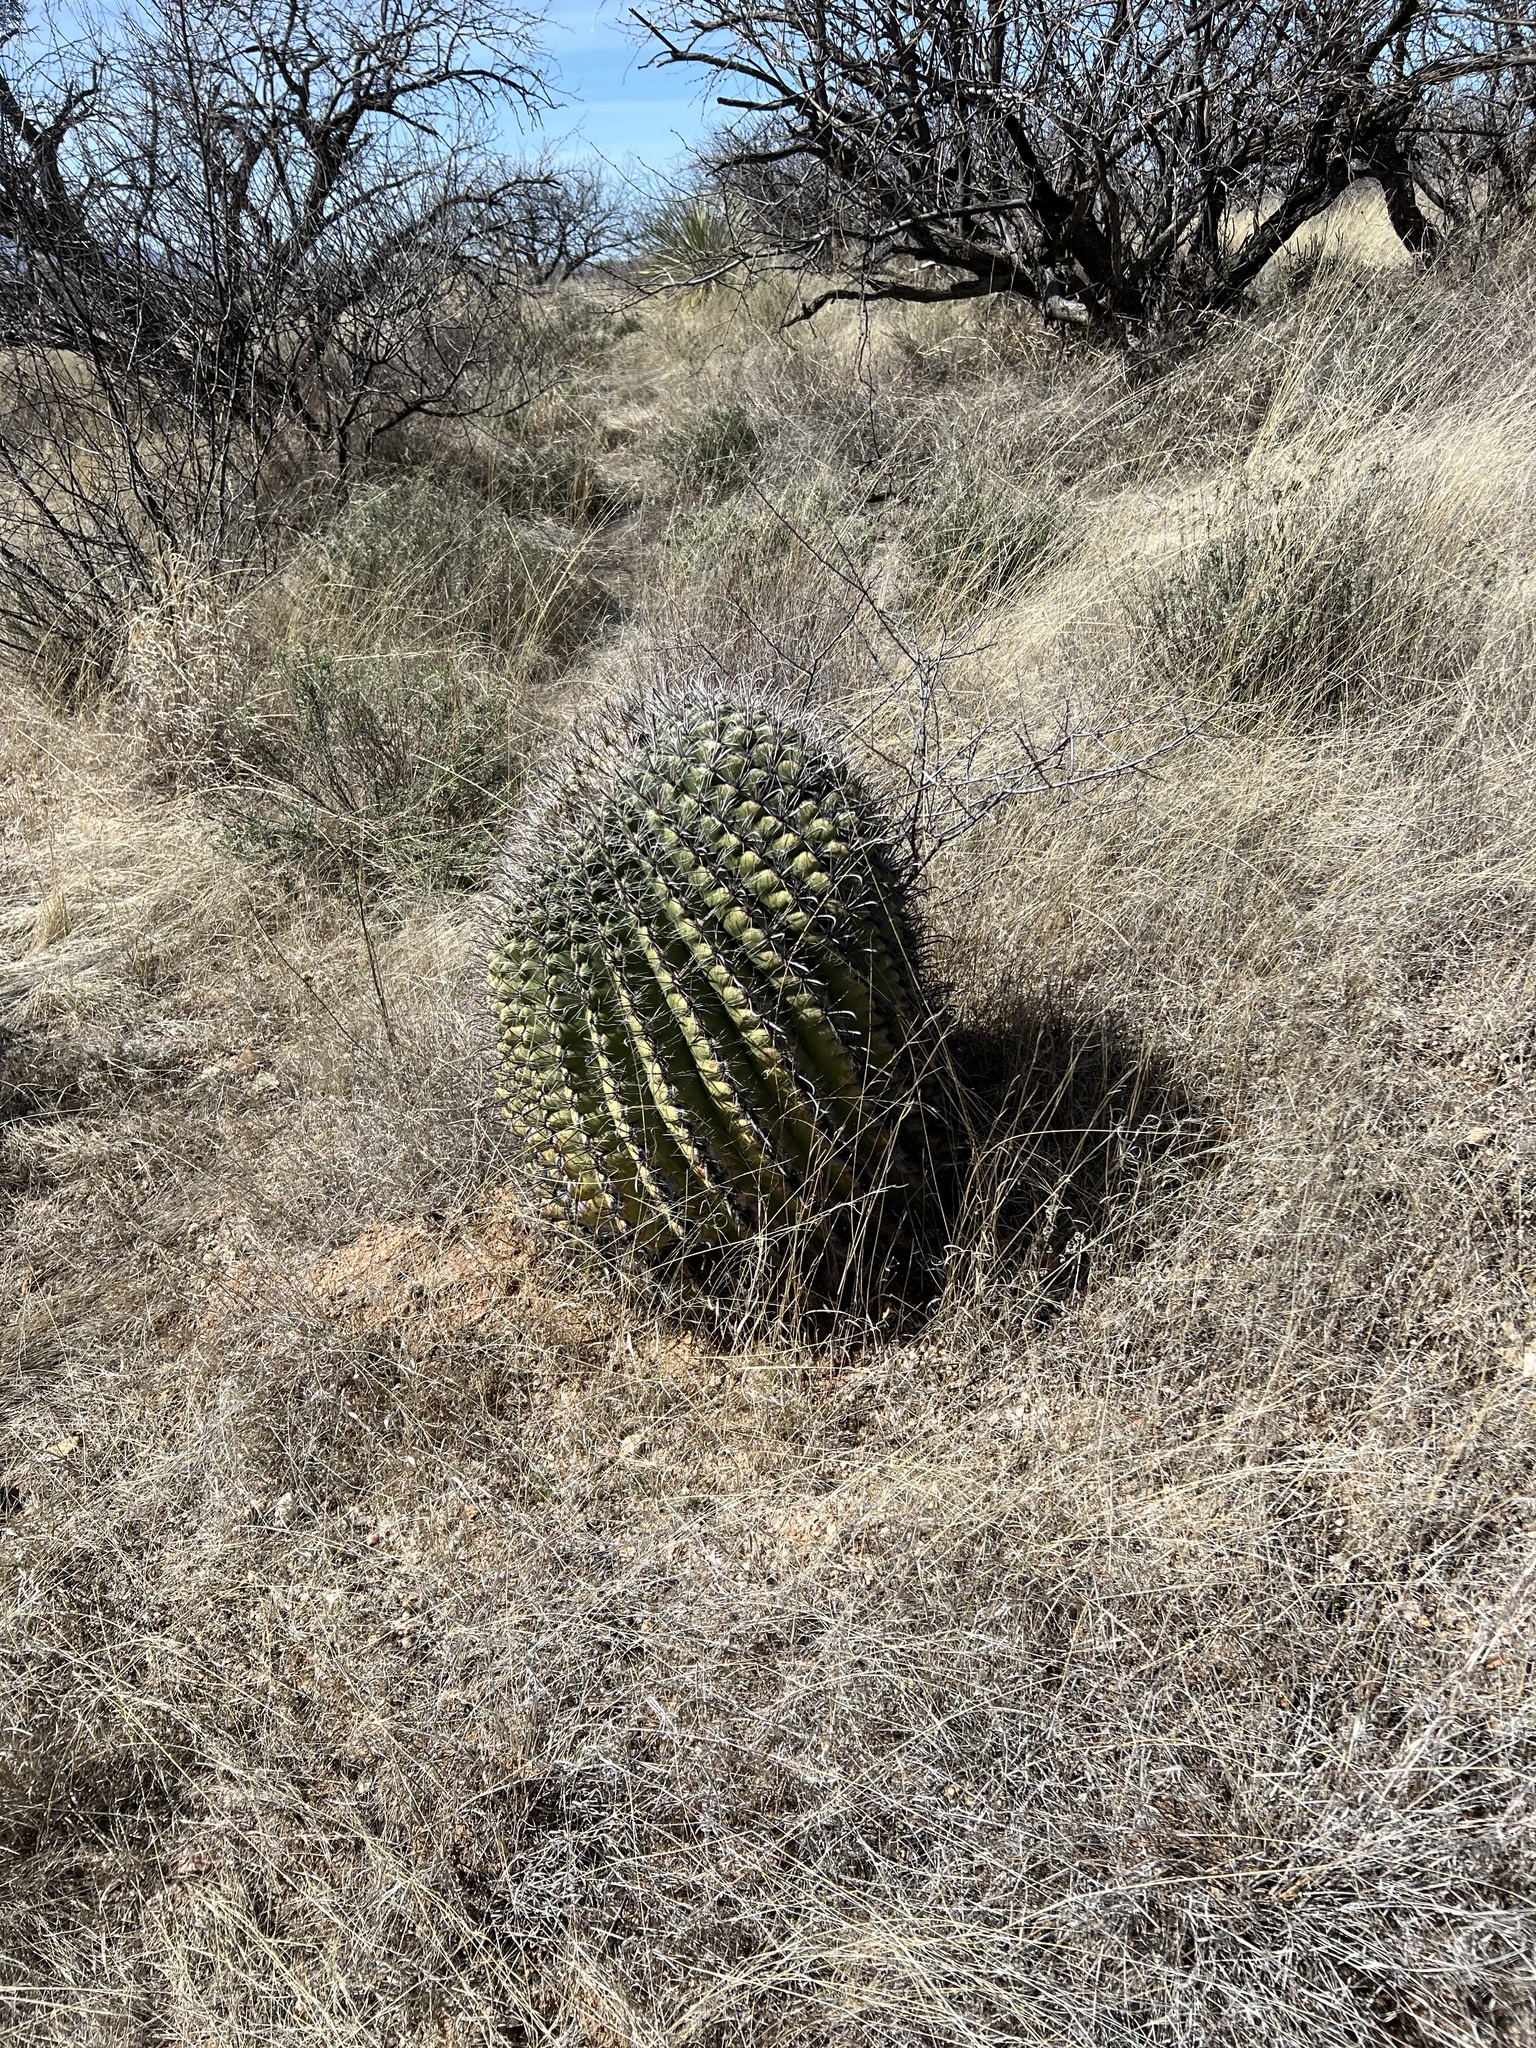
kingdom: Plantae
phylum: Tracheophyta
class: Magnoliopsida
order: Caryophyllales
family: Cactaceae
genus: Ferocactus
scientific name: Ferocactus wislizeni
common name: Candy barrel cactus
